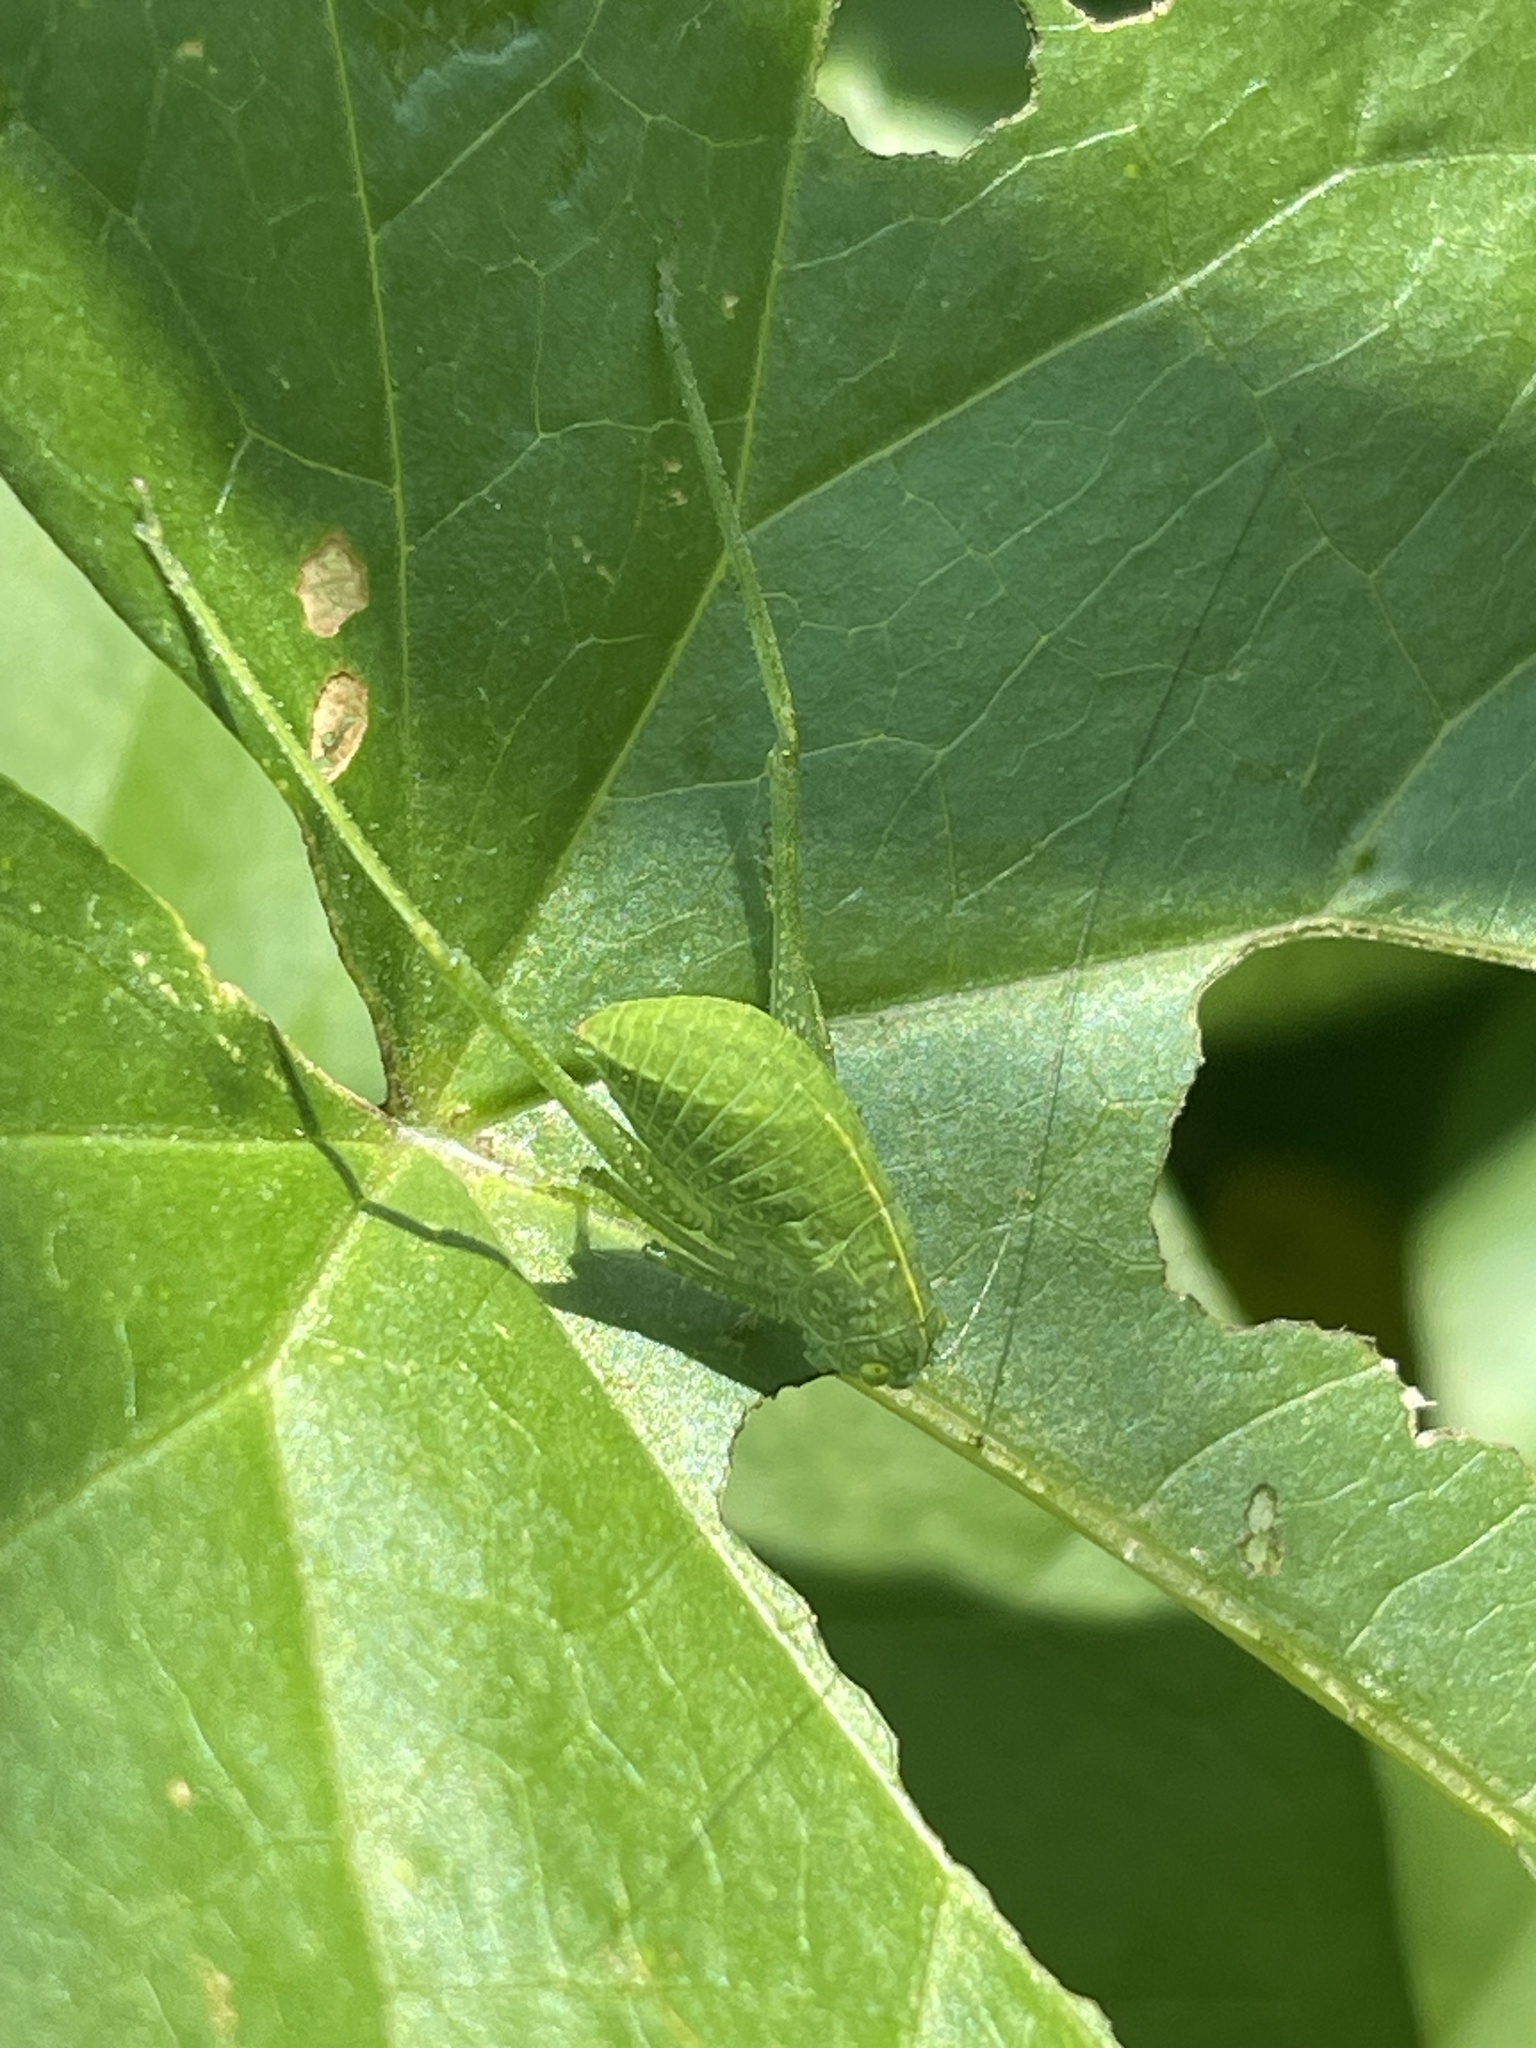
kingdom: Animalia
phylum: Arthropoda
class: Insecta
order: Orthoptera
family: Tettigoniidae
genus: Microcentrum
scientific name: Microcentrum rhombifolium
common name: Broad-winged katydid
